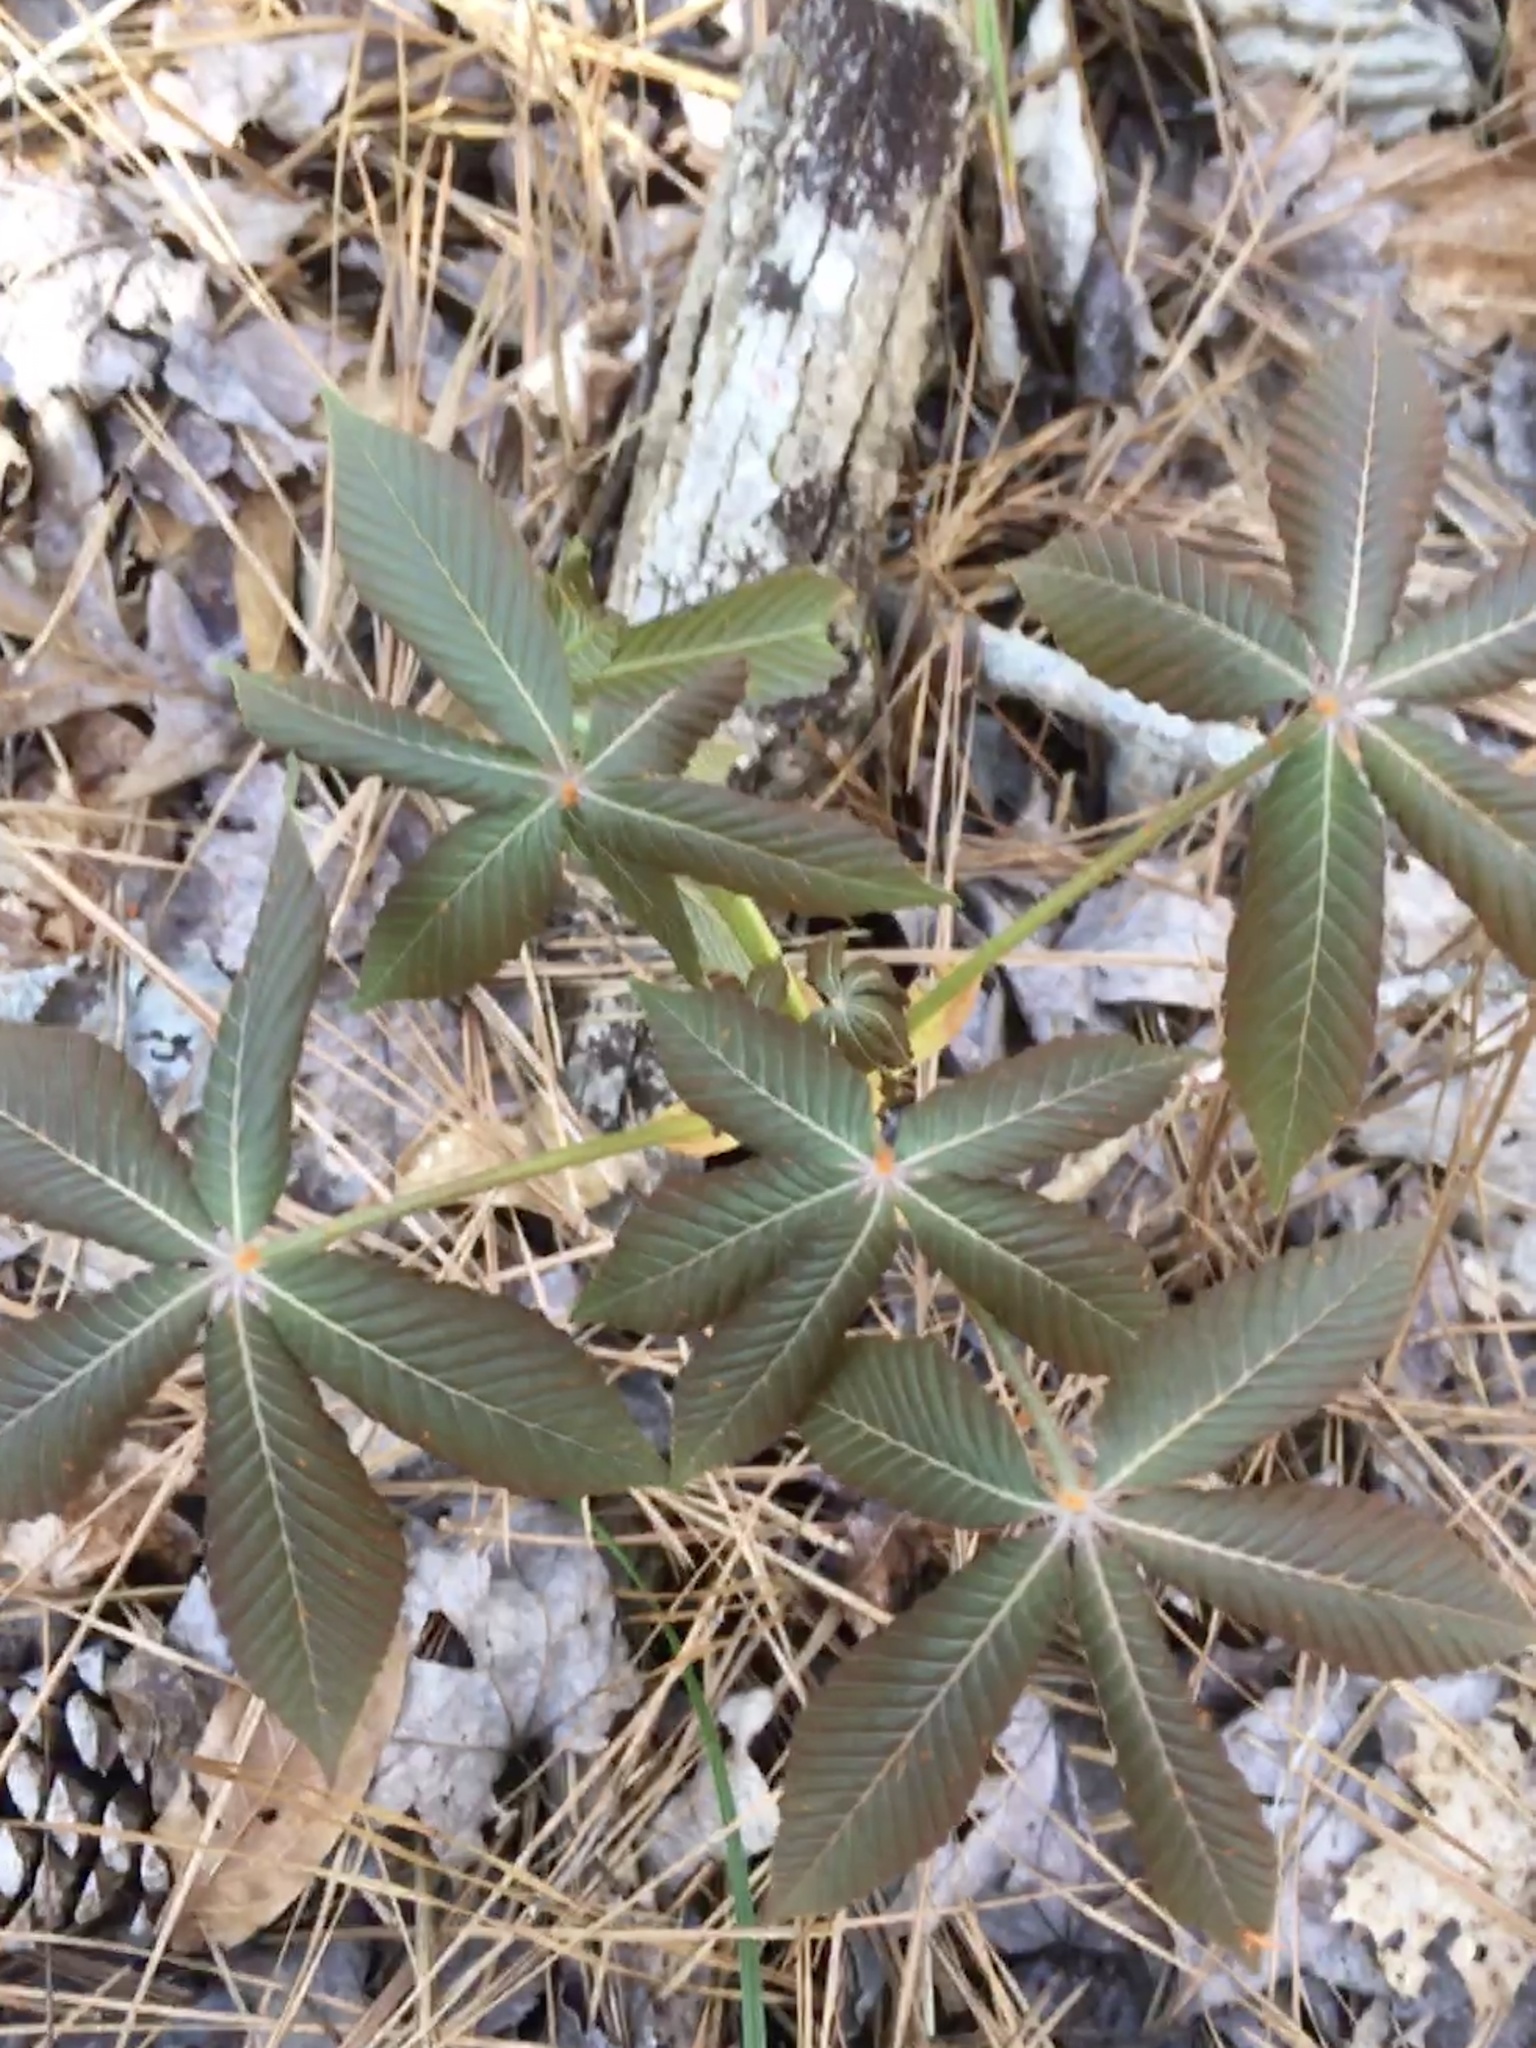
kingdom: Plantae
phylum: Tracheophyta
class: Magnoliopsida
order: Sapindales
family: Sapindaceae
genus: Aesculus
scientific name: Aesculus sylvatica
